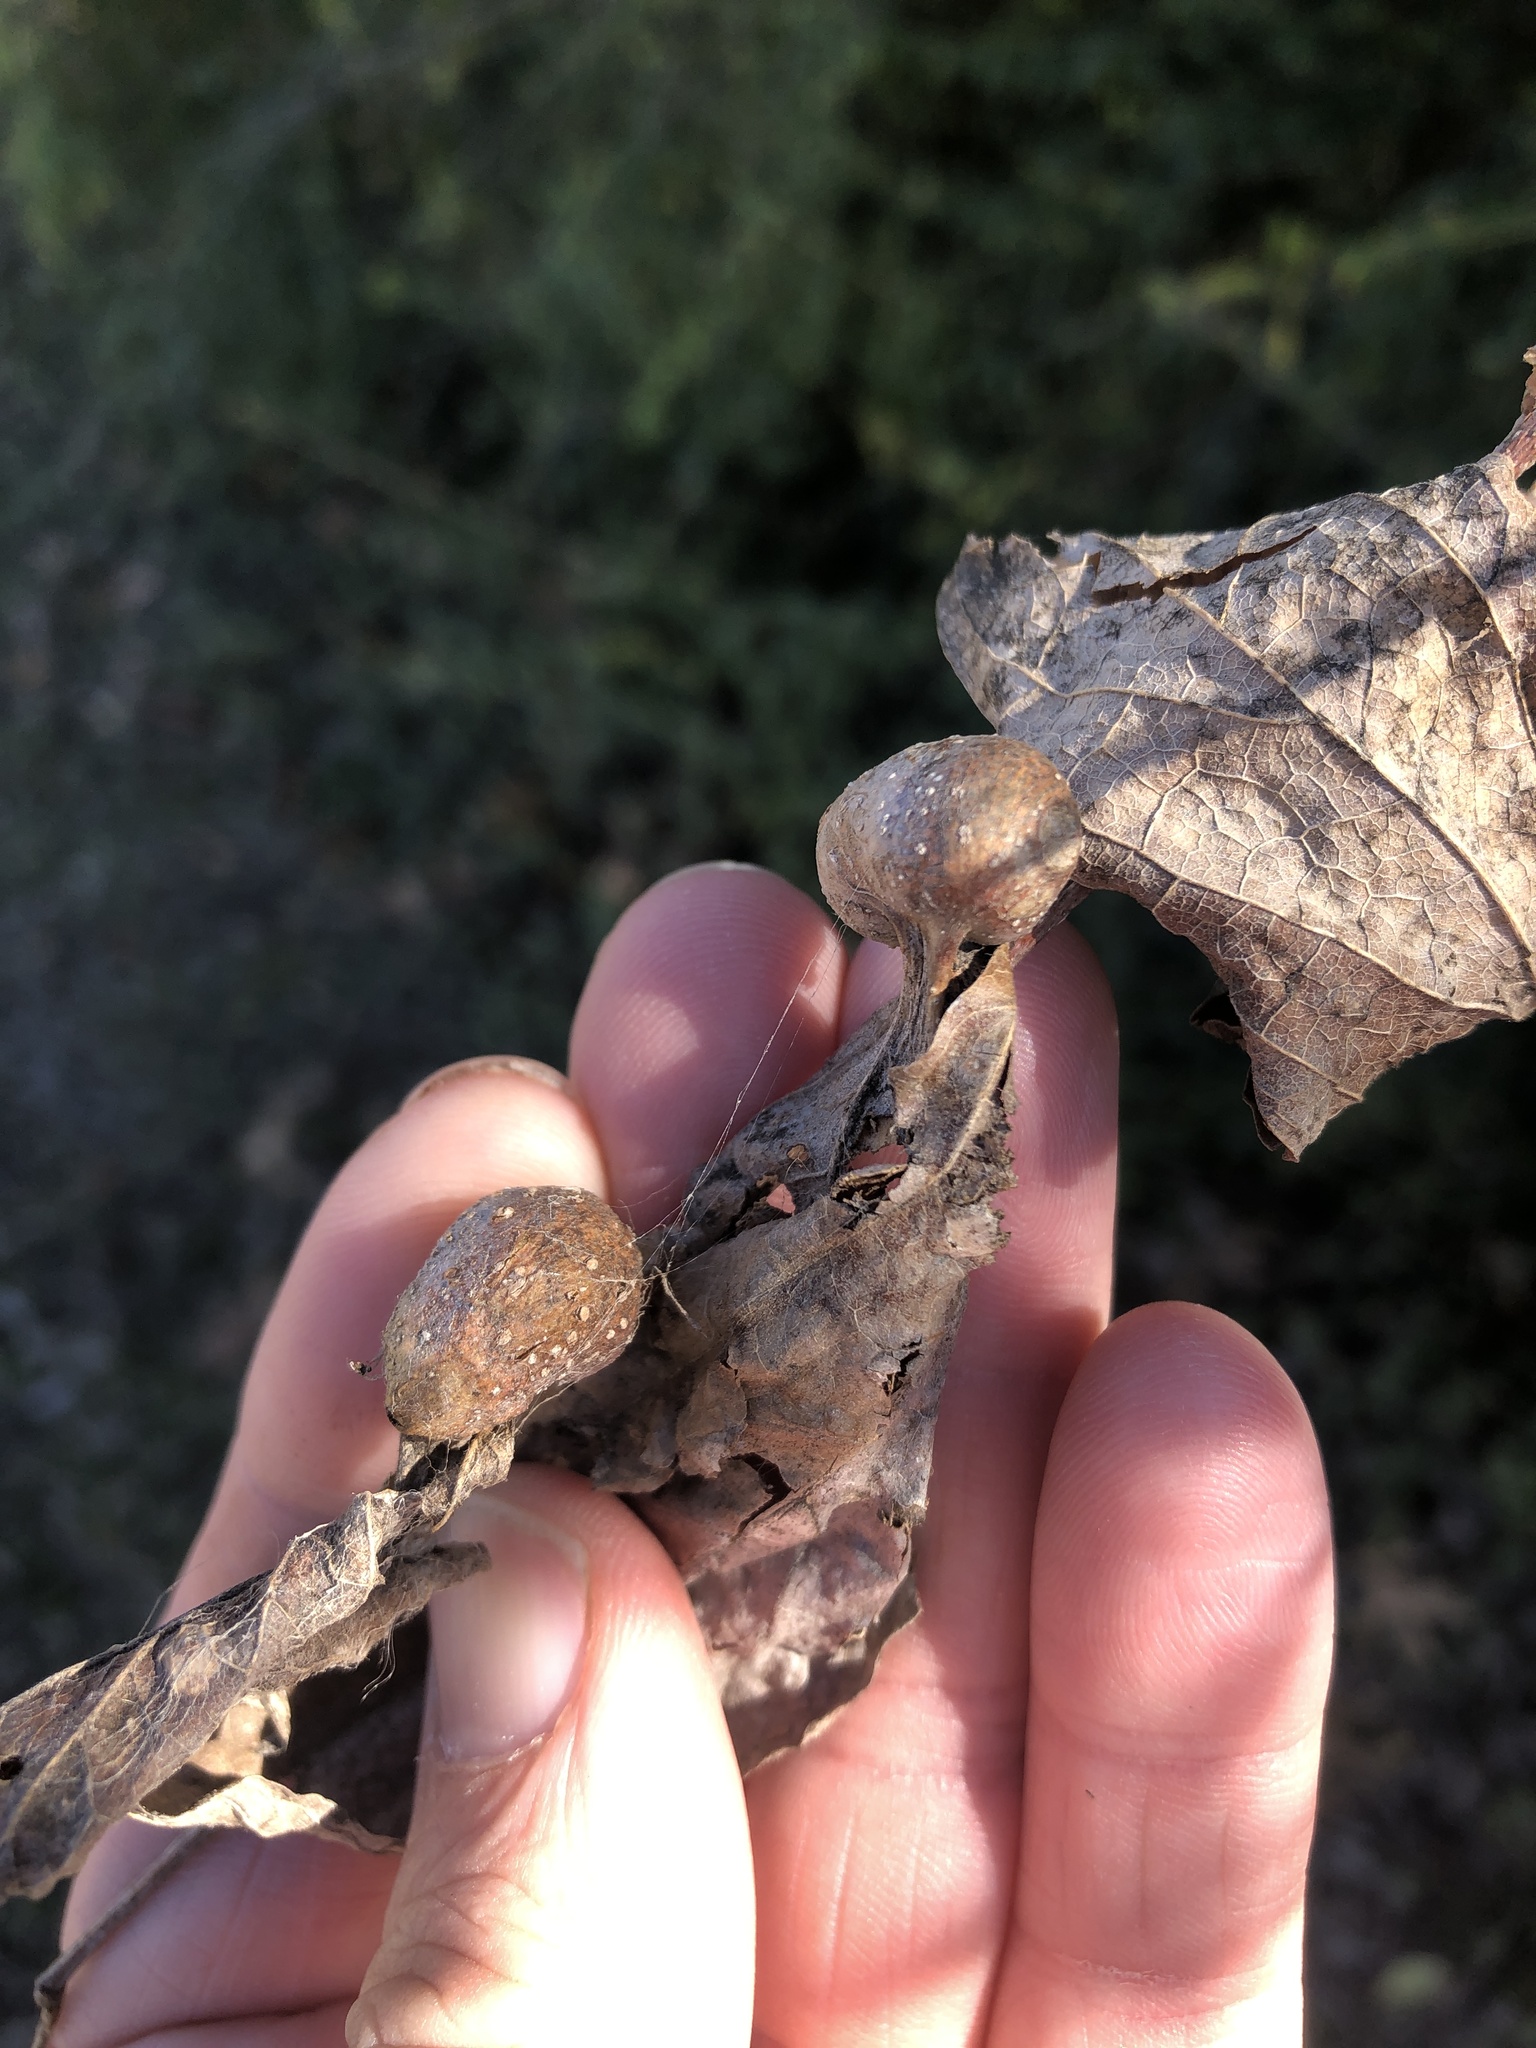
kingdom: Animalia
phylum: Arthropoda
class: Insecta
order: Hemiptera
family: Aphalaridae
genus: Pachypsylla
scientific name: Pachypsylla venusta
